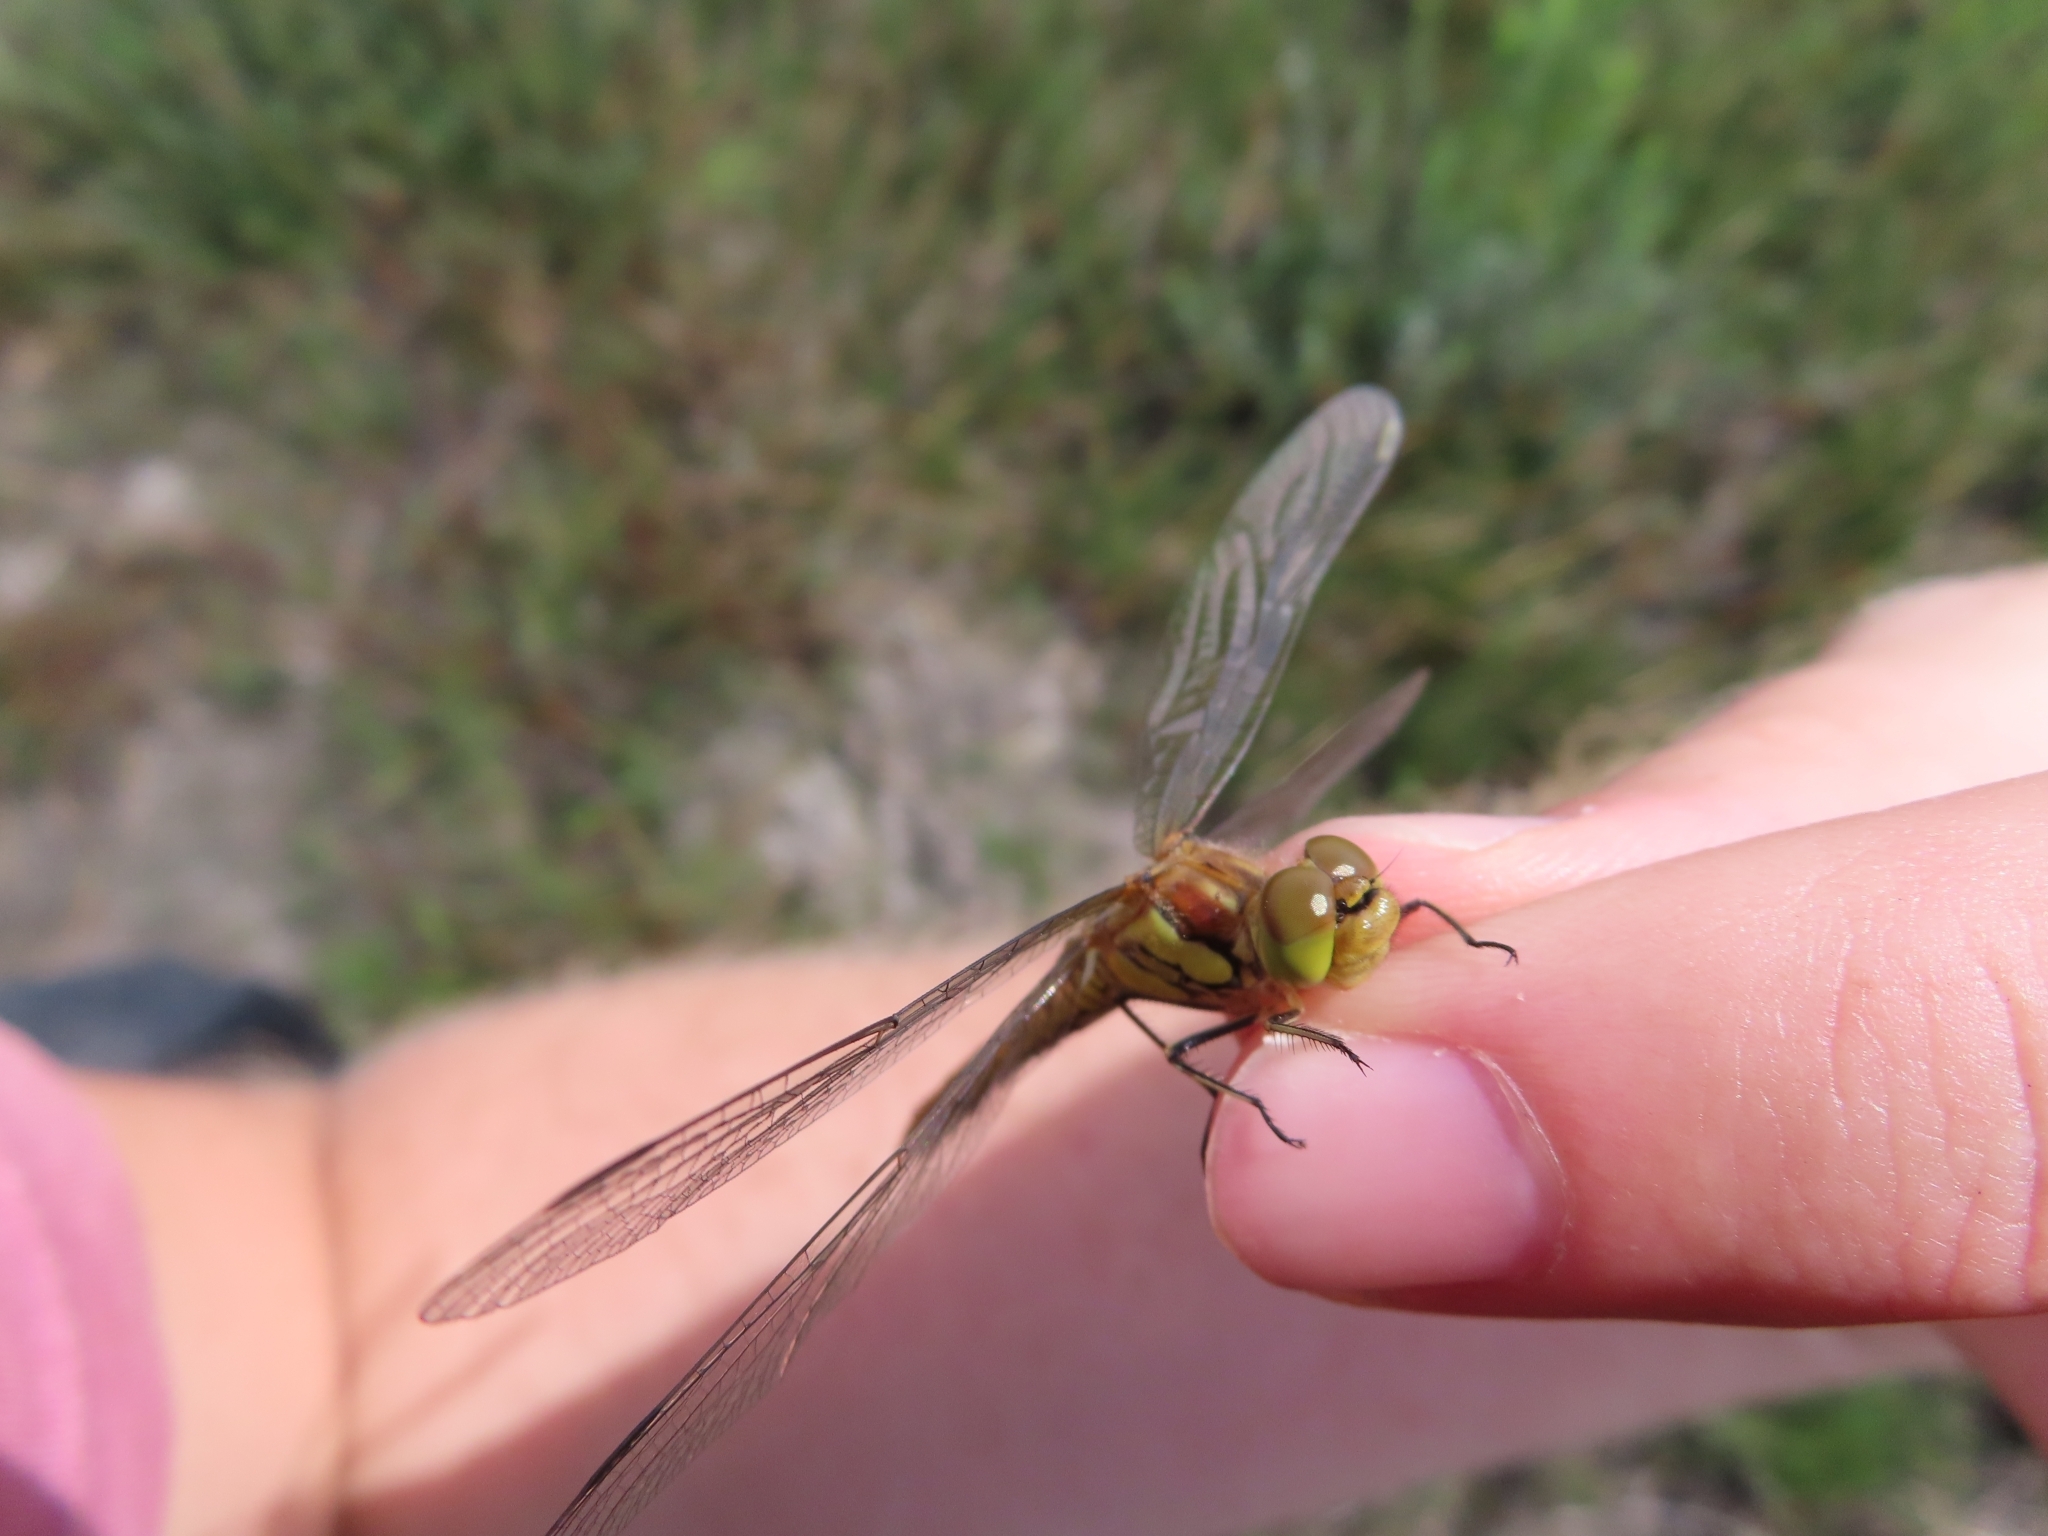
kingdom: Animalia
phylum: Arthropoda
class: Insecta
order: Odonata
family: Libellulidae
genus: Sympetrum
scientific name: Sympetrum striolatum
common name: Common darter
